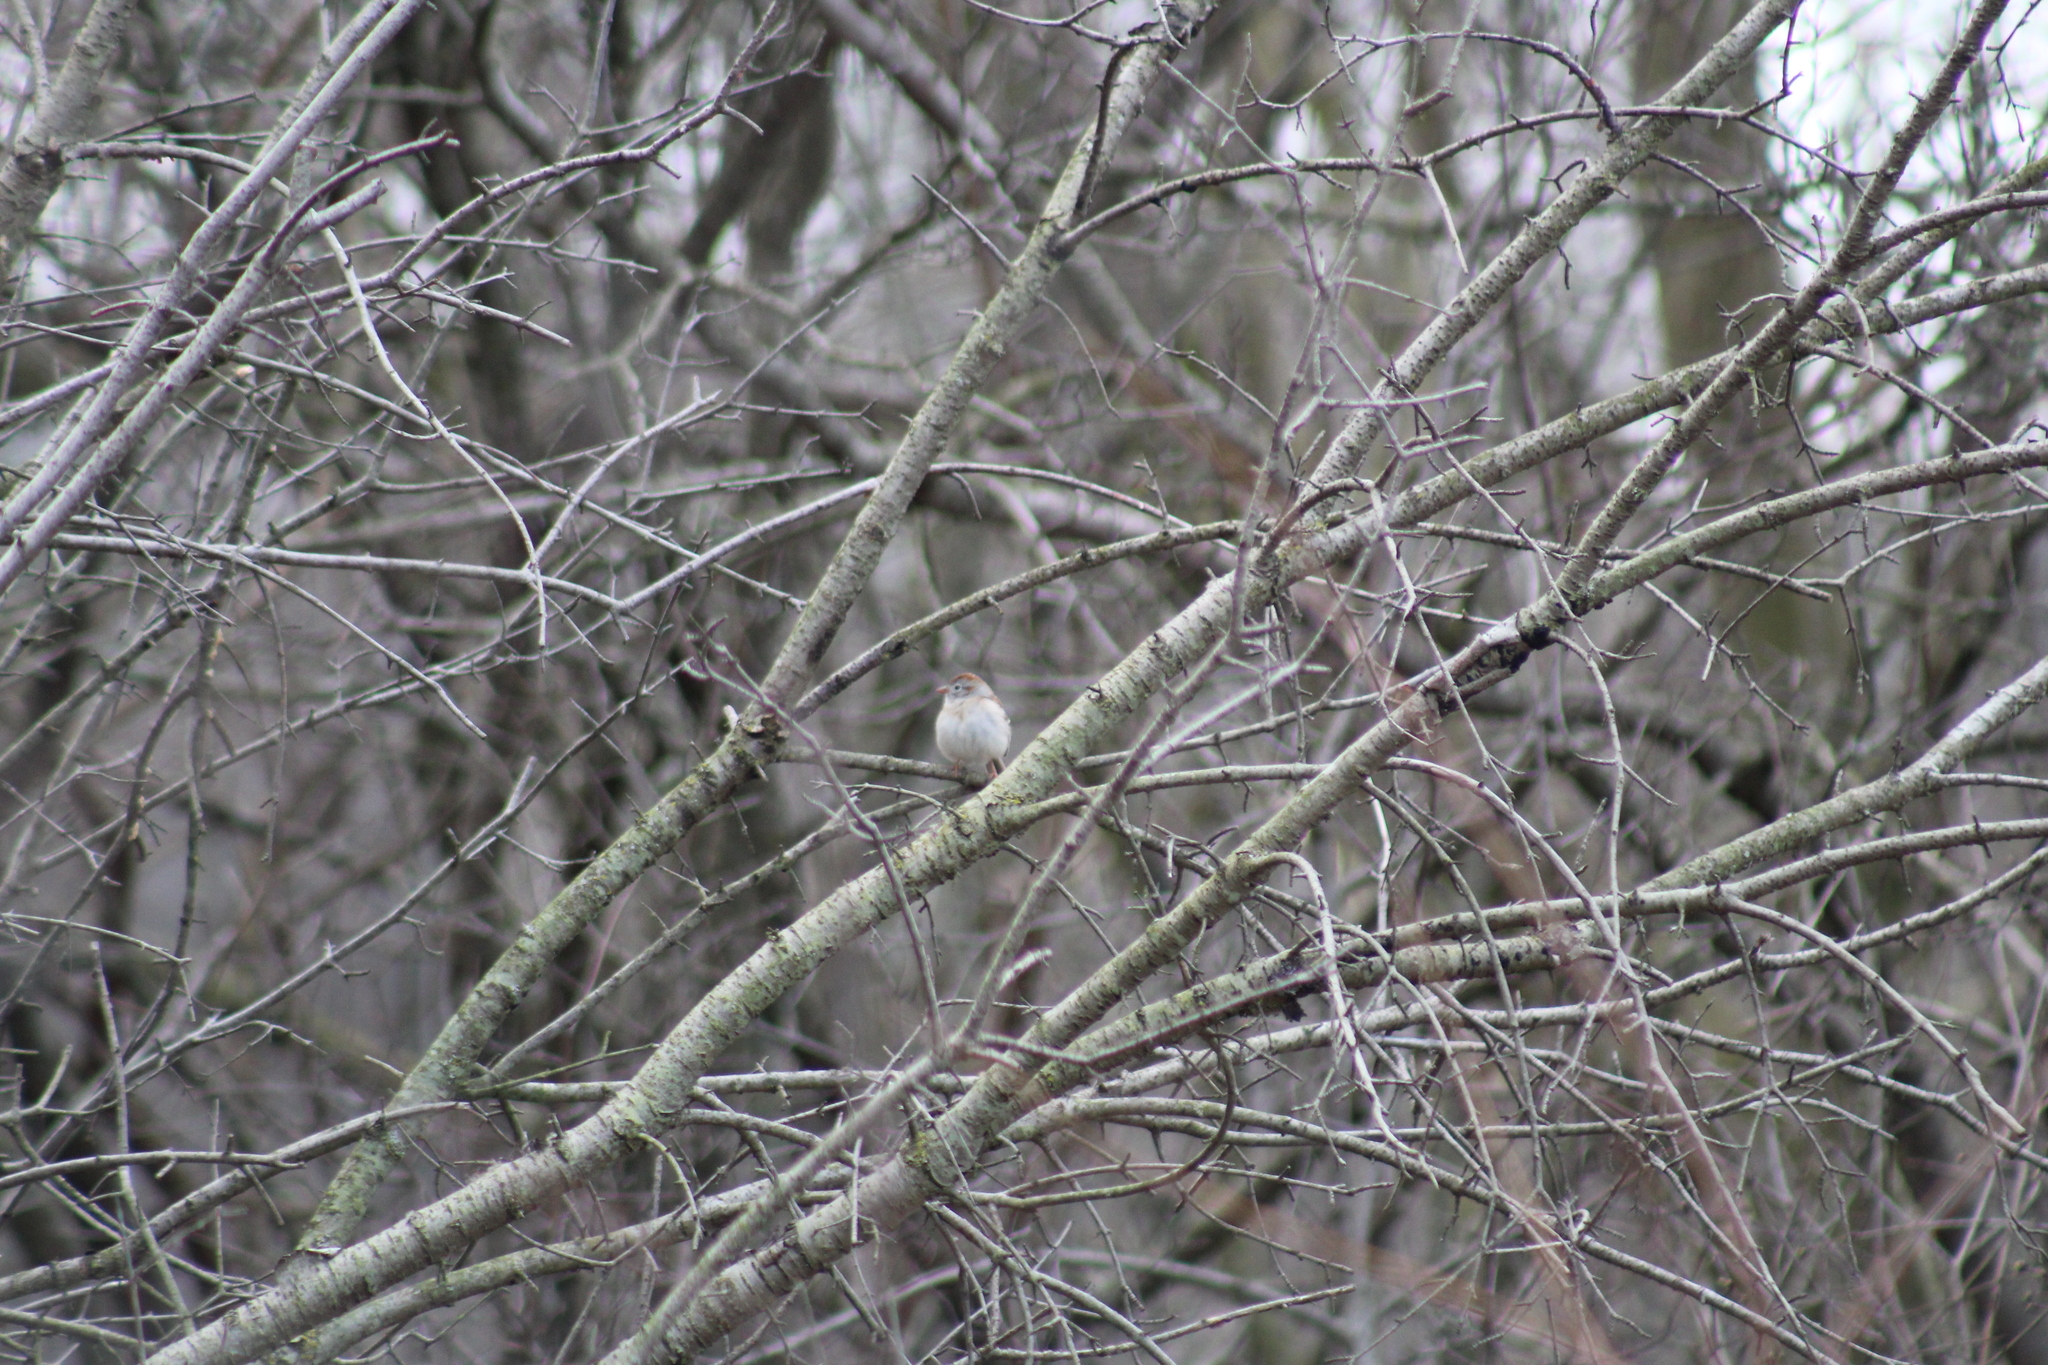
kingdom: Animalia
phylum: Chordata
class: Aves
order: Passeriformes
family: Passerellidae
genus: Spizella
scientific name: Spizella pusilla
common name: Field sparrow
